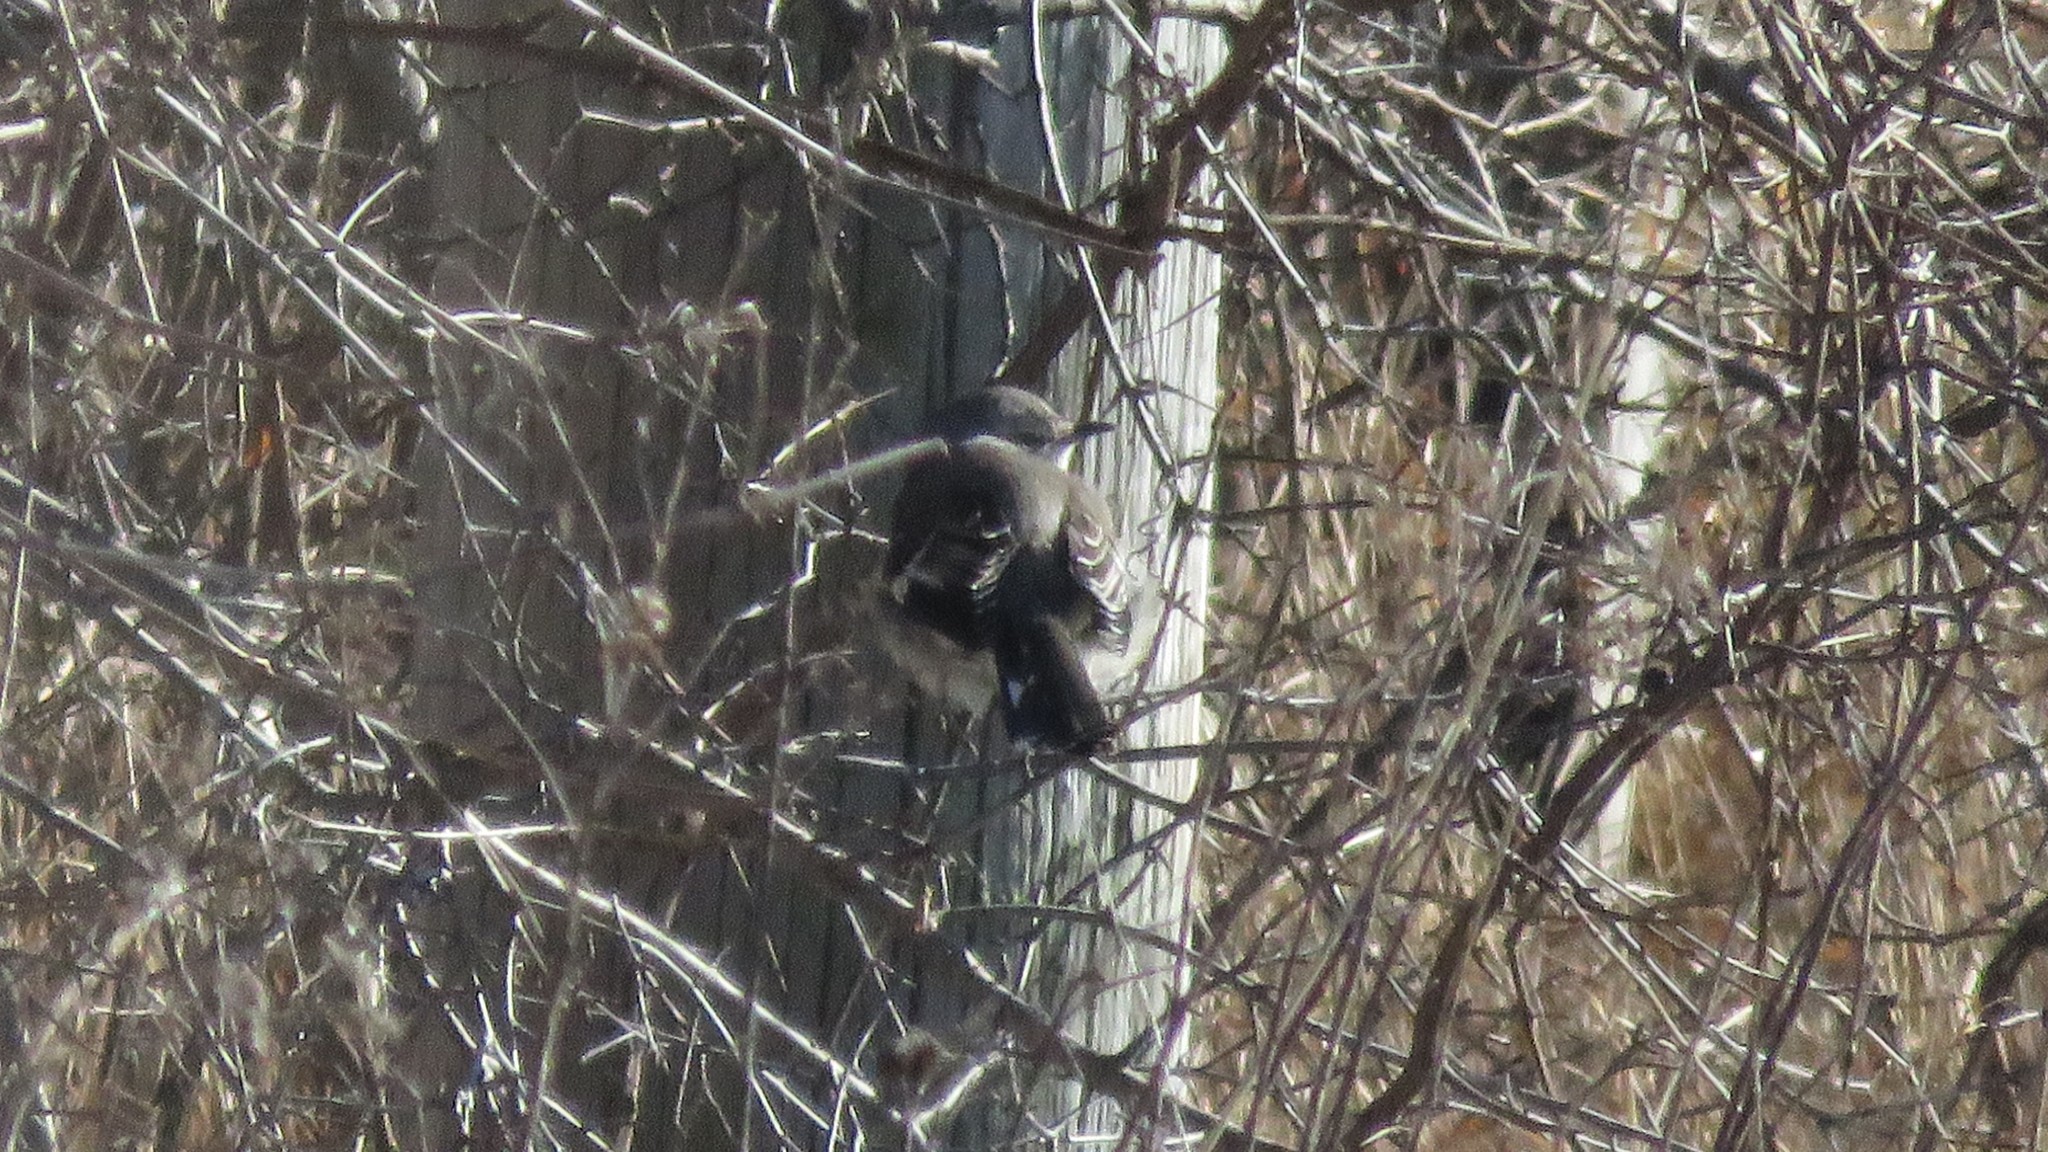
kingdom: Animalia
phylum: Chordata
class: Aves
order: Passeriformes
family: Mimidae
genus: Mimus
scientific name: Mimus polyglottos
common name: Northern mockingbird
